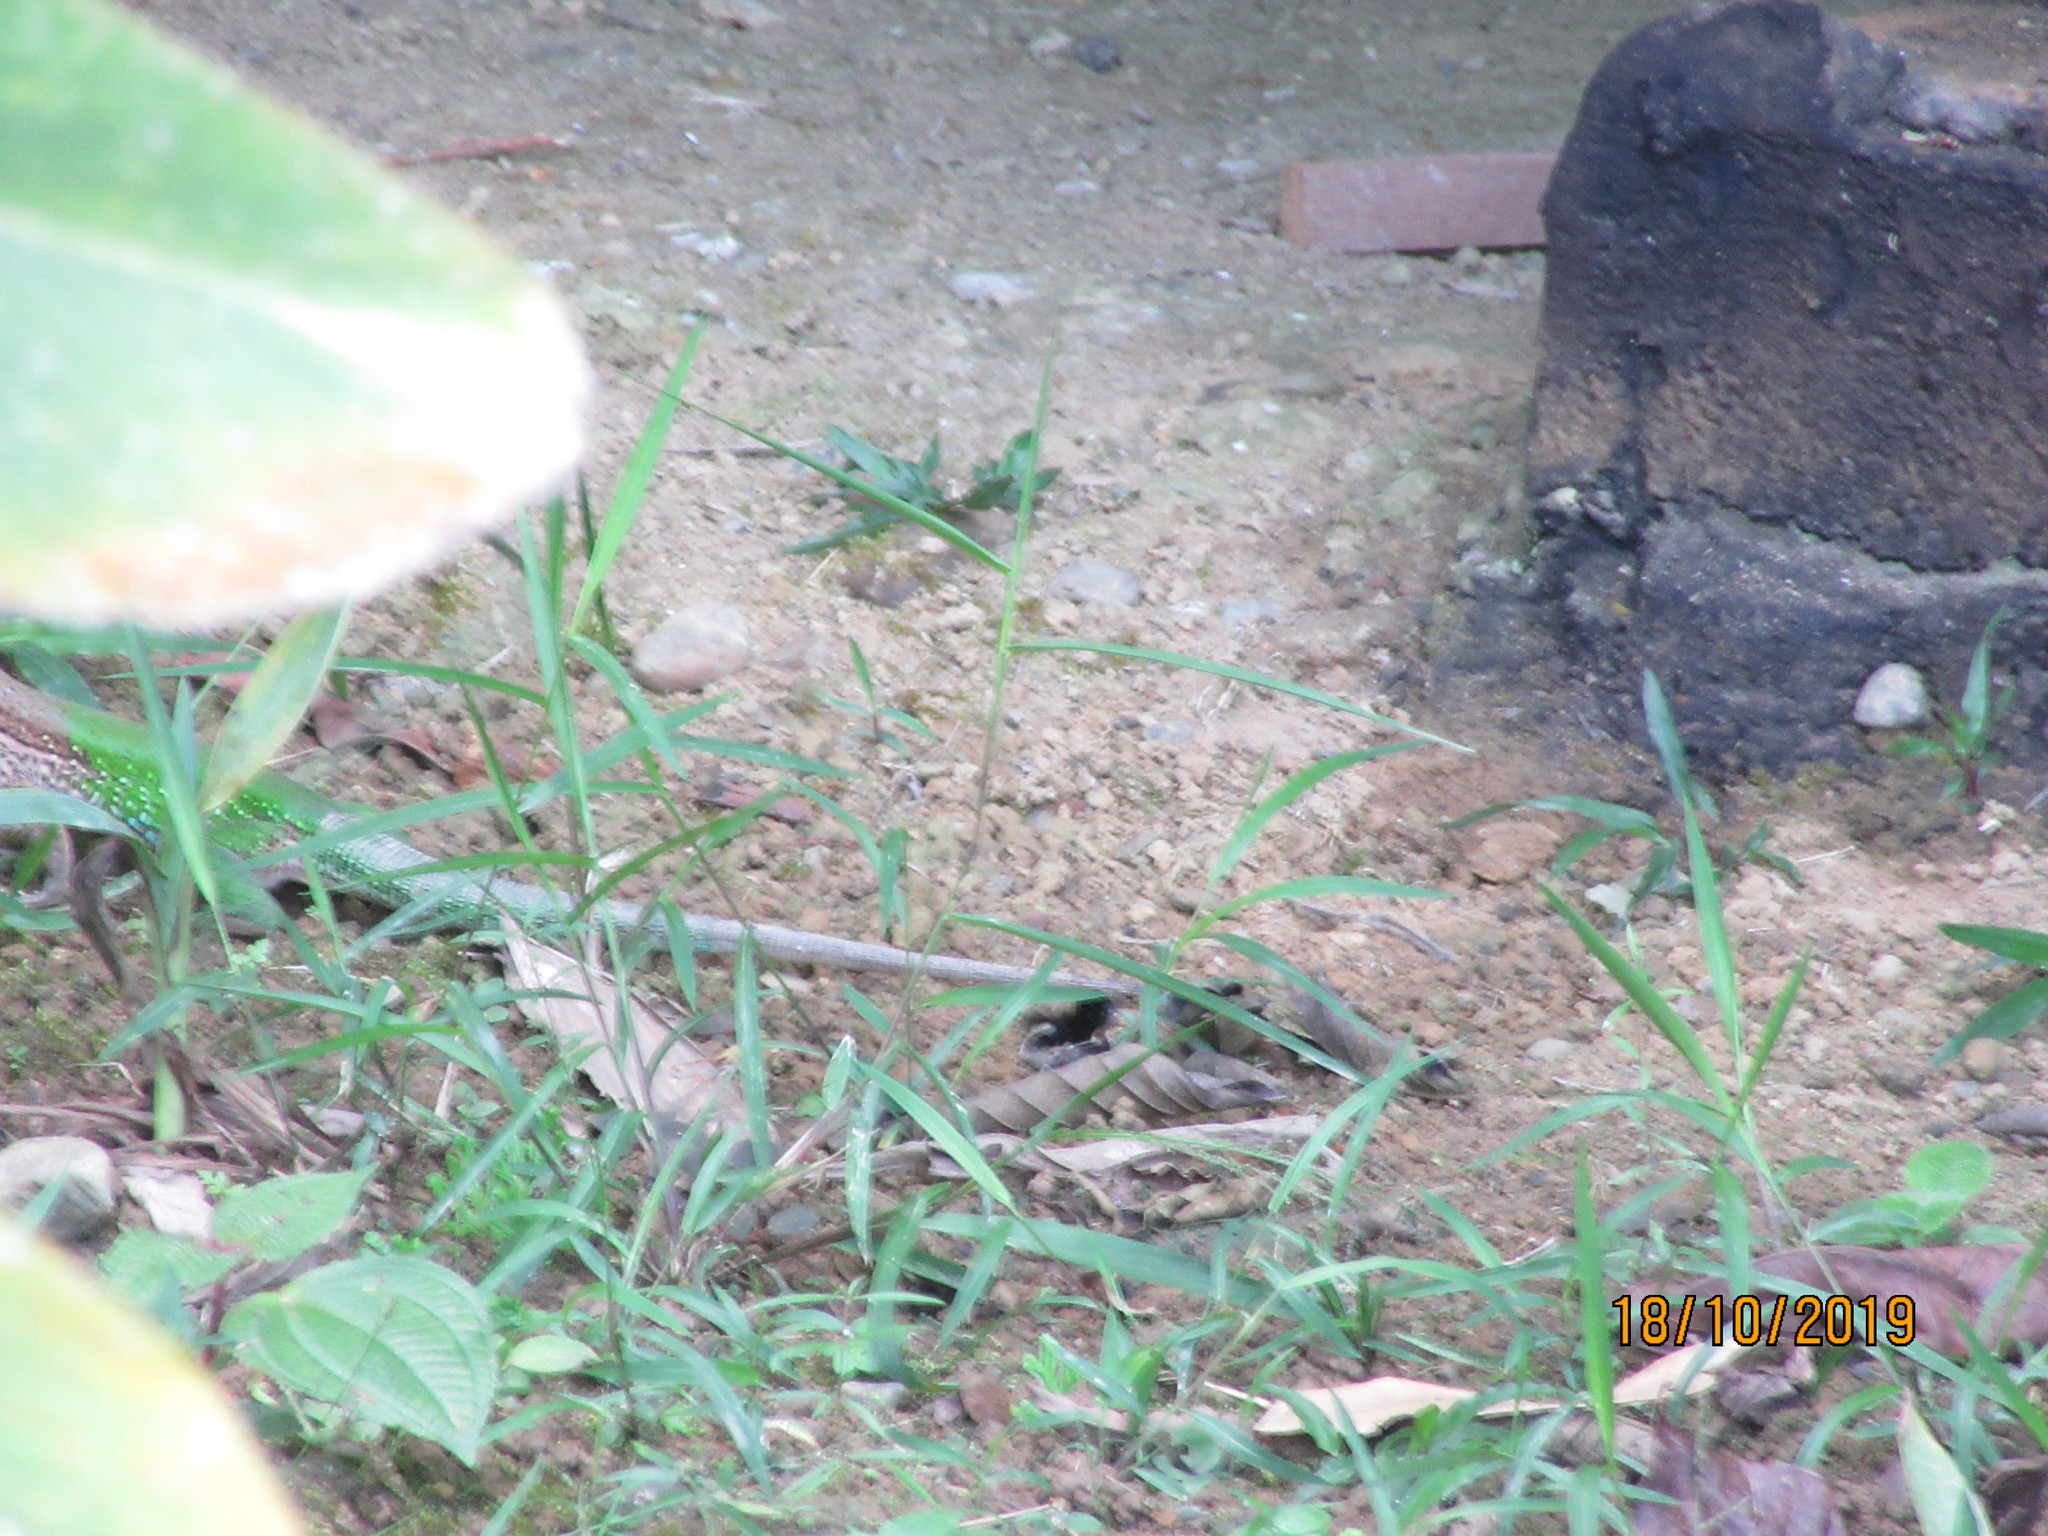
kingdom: Animalia
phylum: Chordata
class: Squamata
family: Teiidae
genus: Ameiva
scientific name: Ameiva ameiva
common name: Giant ameiva
